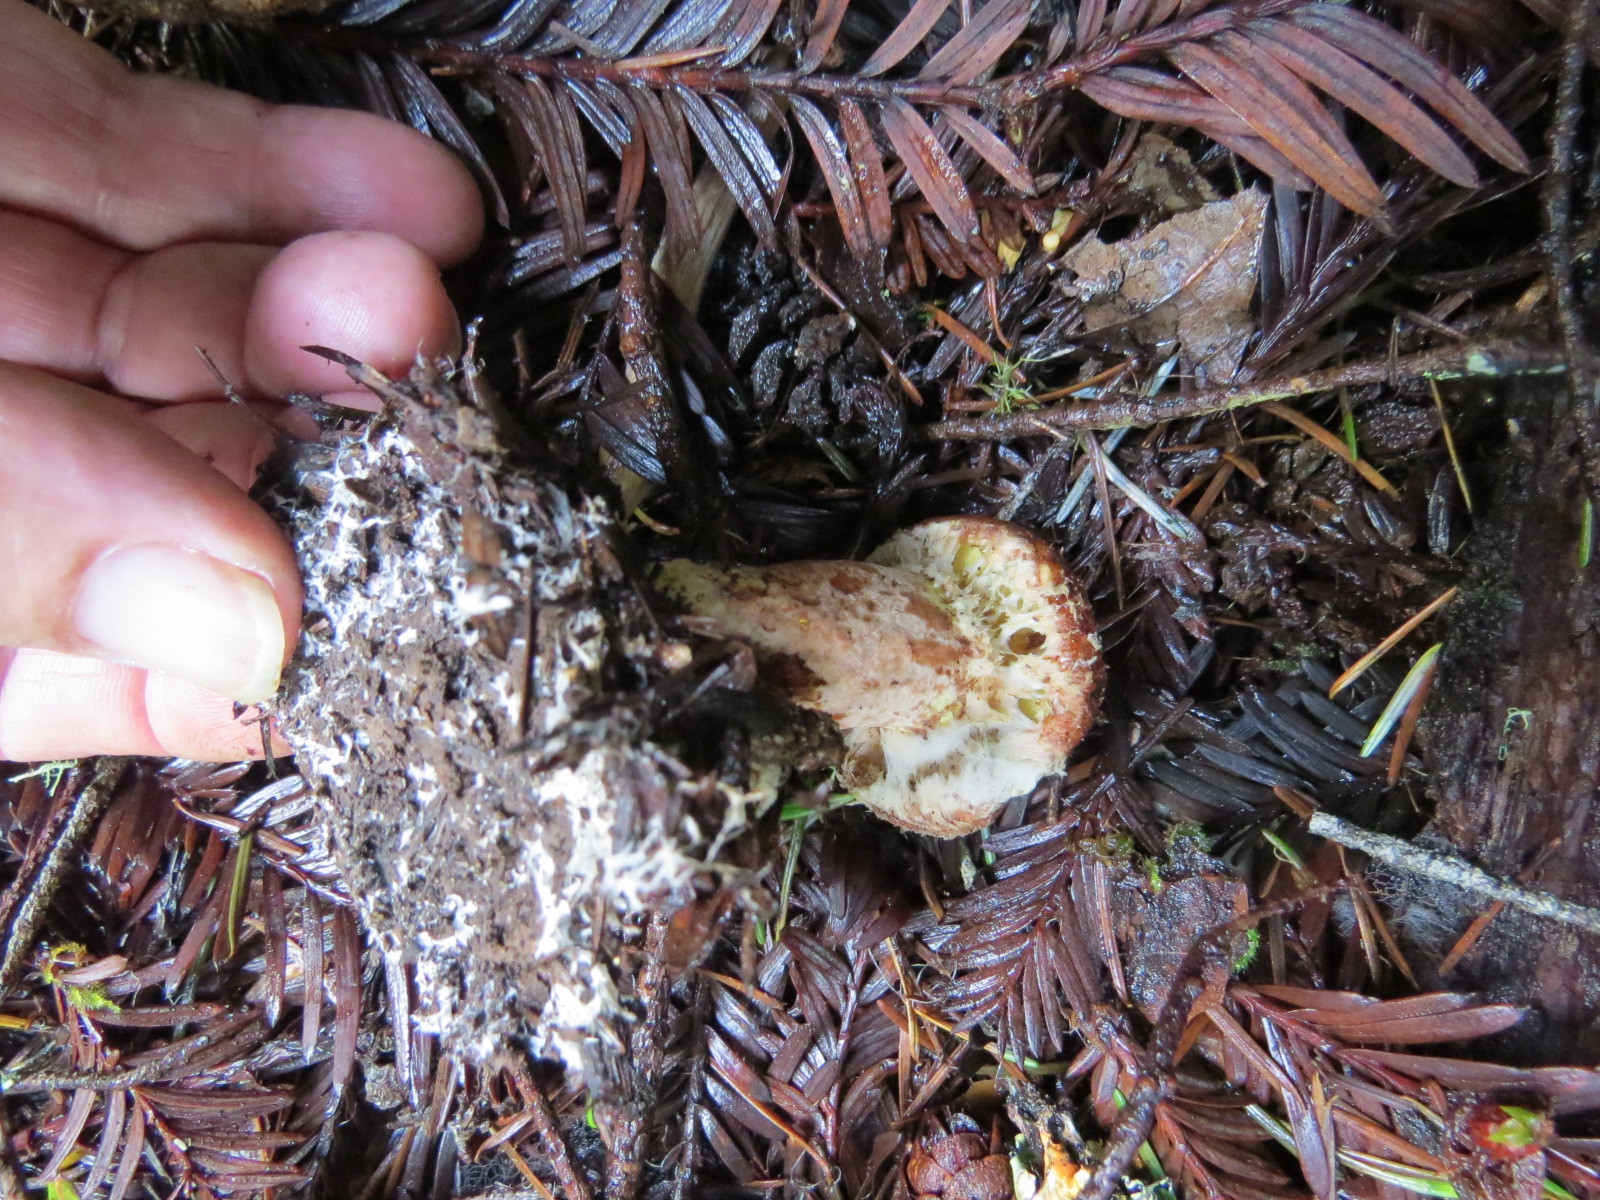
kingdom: Fungi
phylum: Basidiomycota
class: Agaricomycetes
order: Boletales
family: Suillaceae
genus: Suillus
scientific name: Suillus lakei
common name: Western painted suillus
